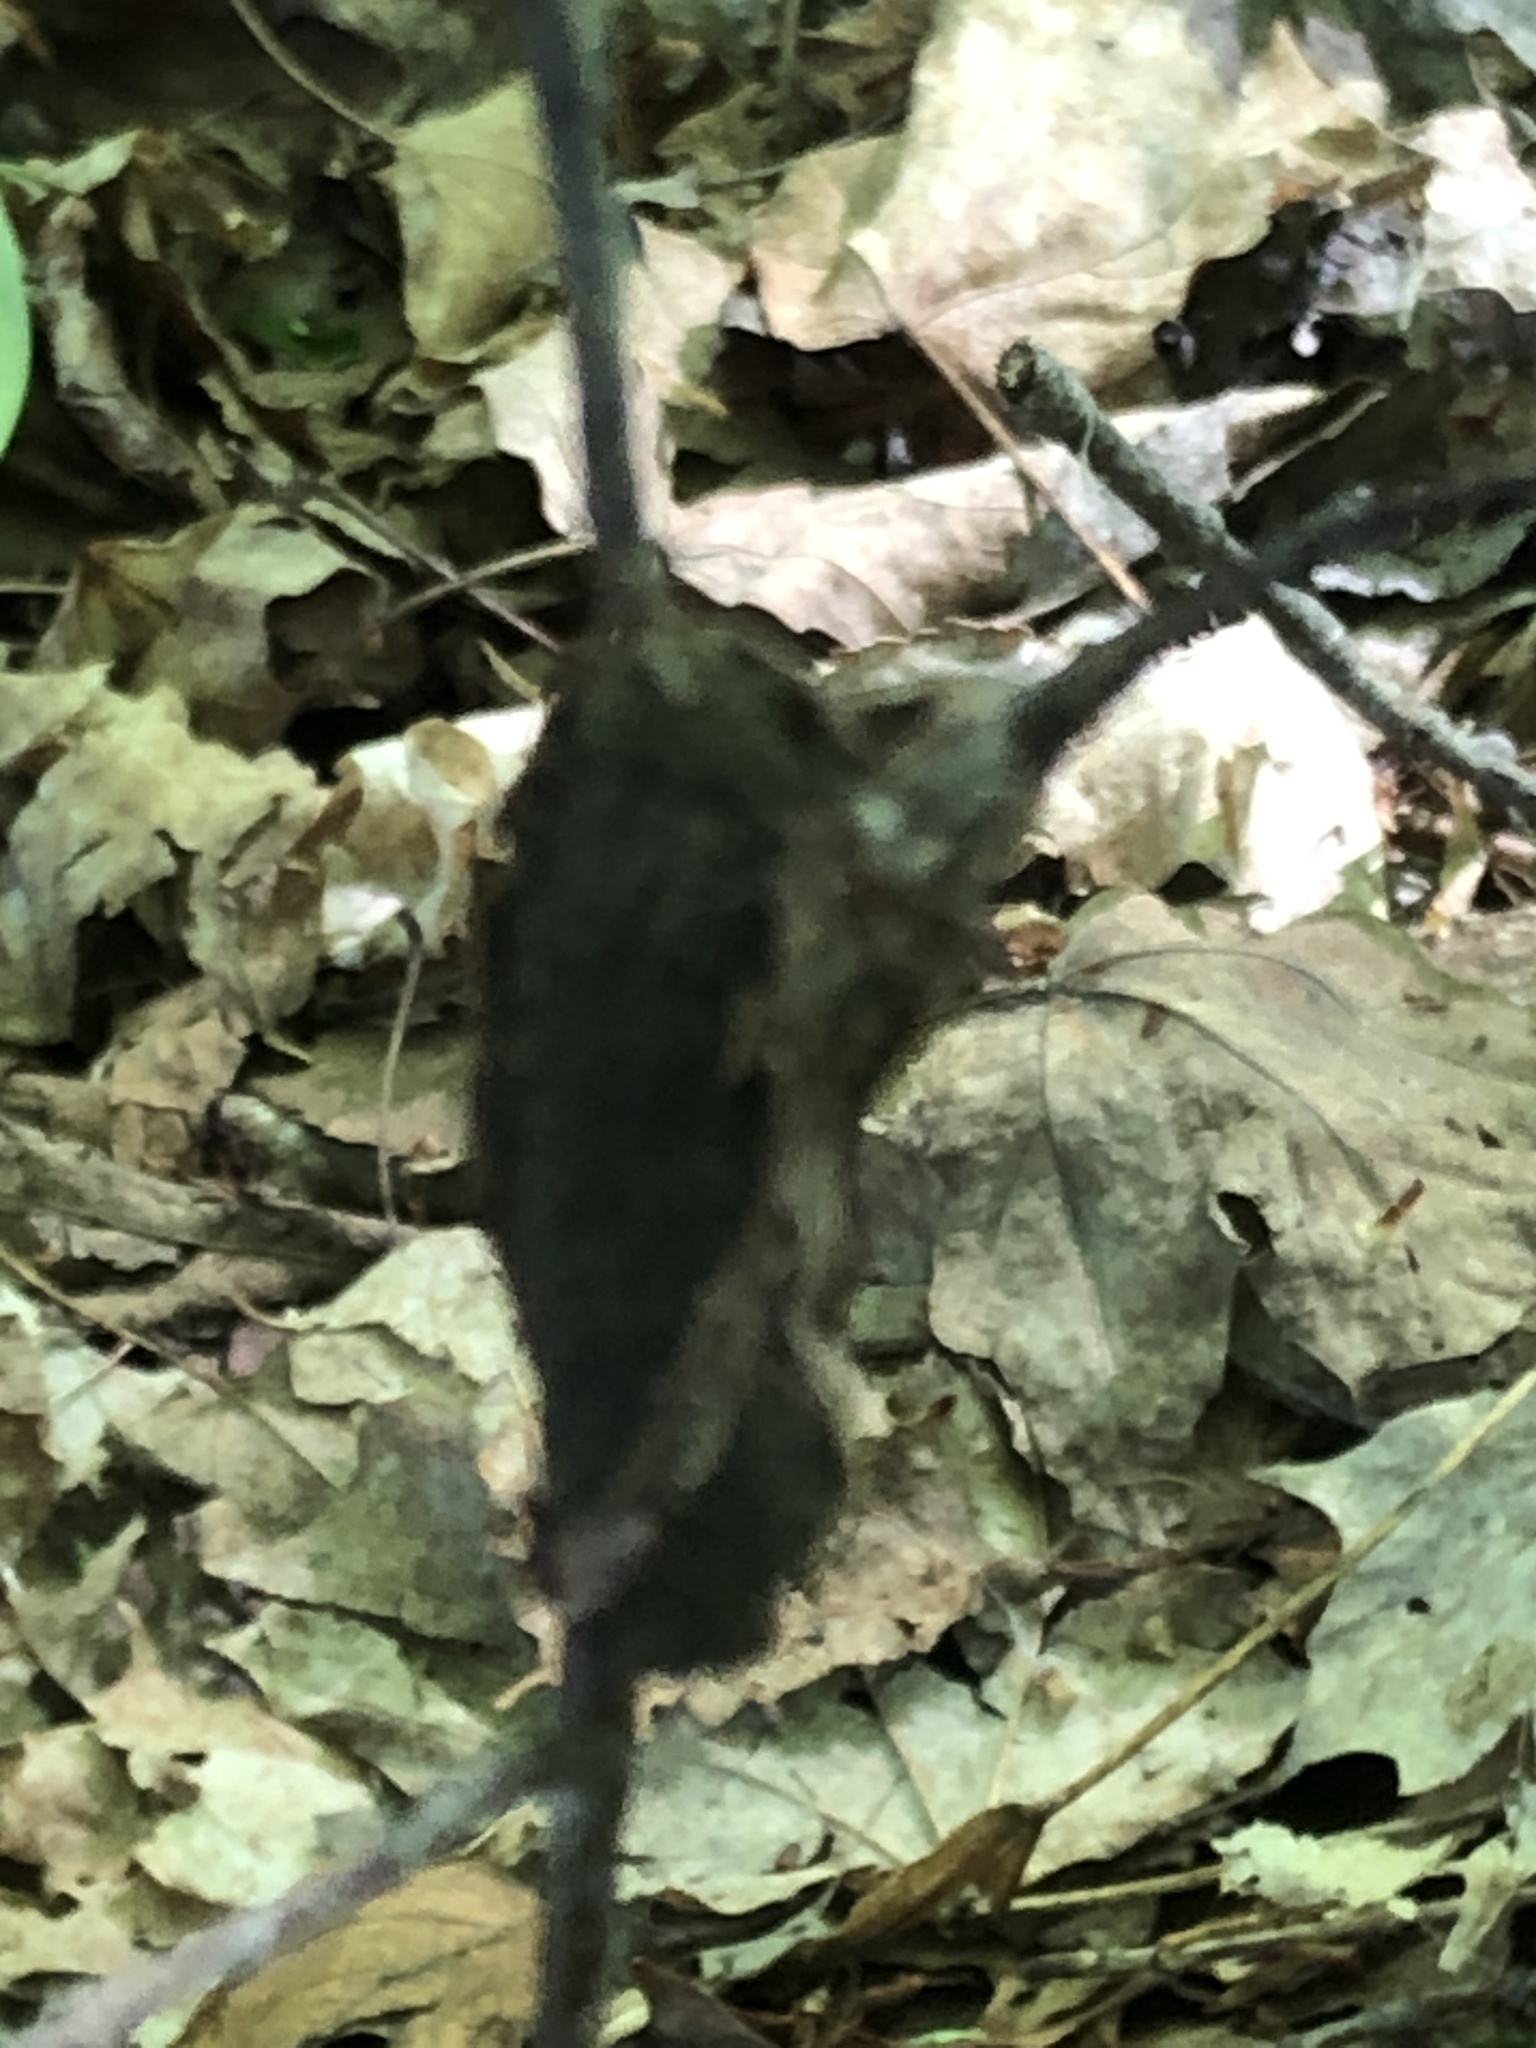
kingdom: Fungi
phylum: Ascomycota
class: Dothideomycetes
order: Venturiales
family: Venturiaceae
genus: Apiosporina
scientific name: Apiosporina morbosa
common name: Black knot
